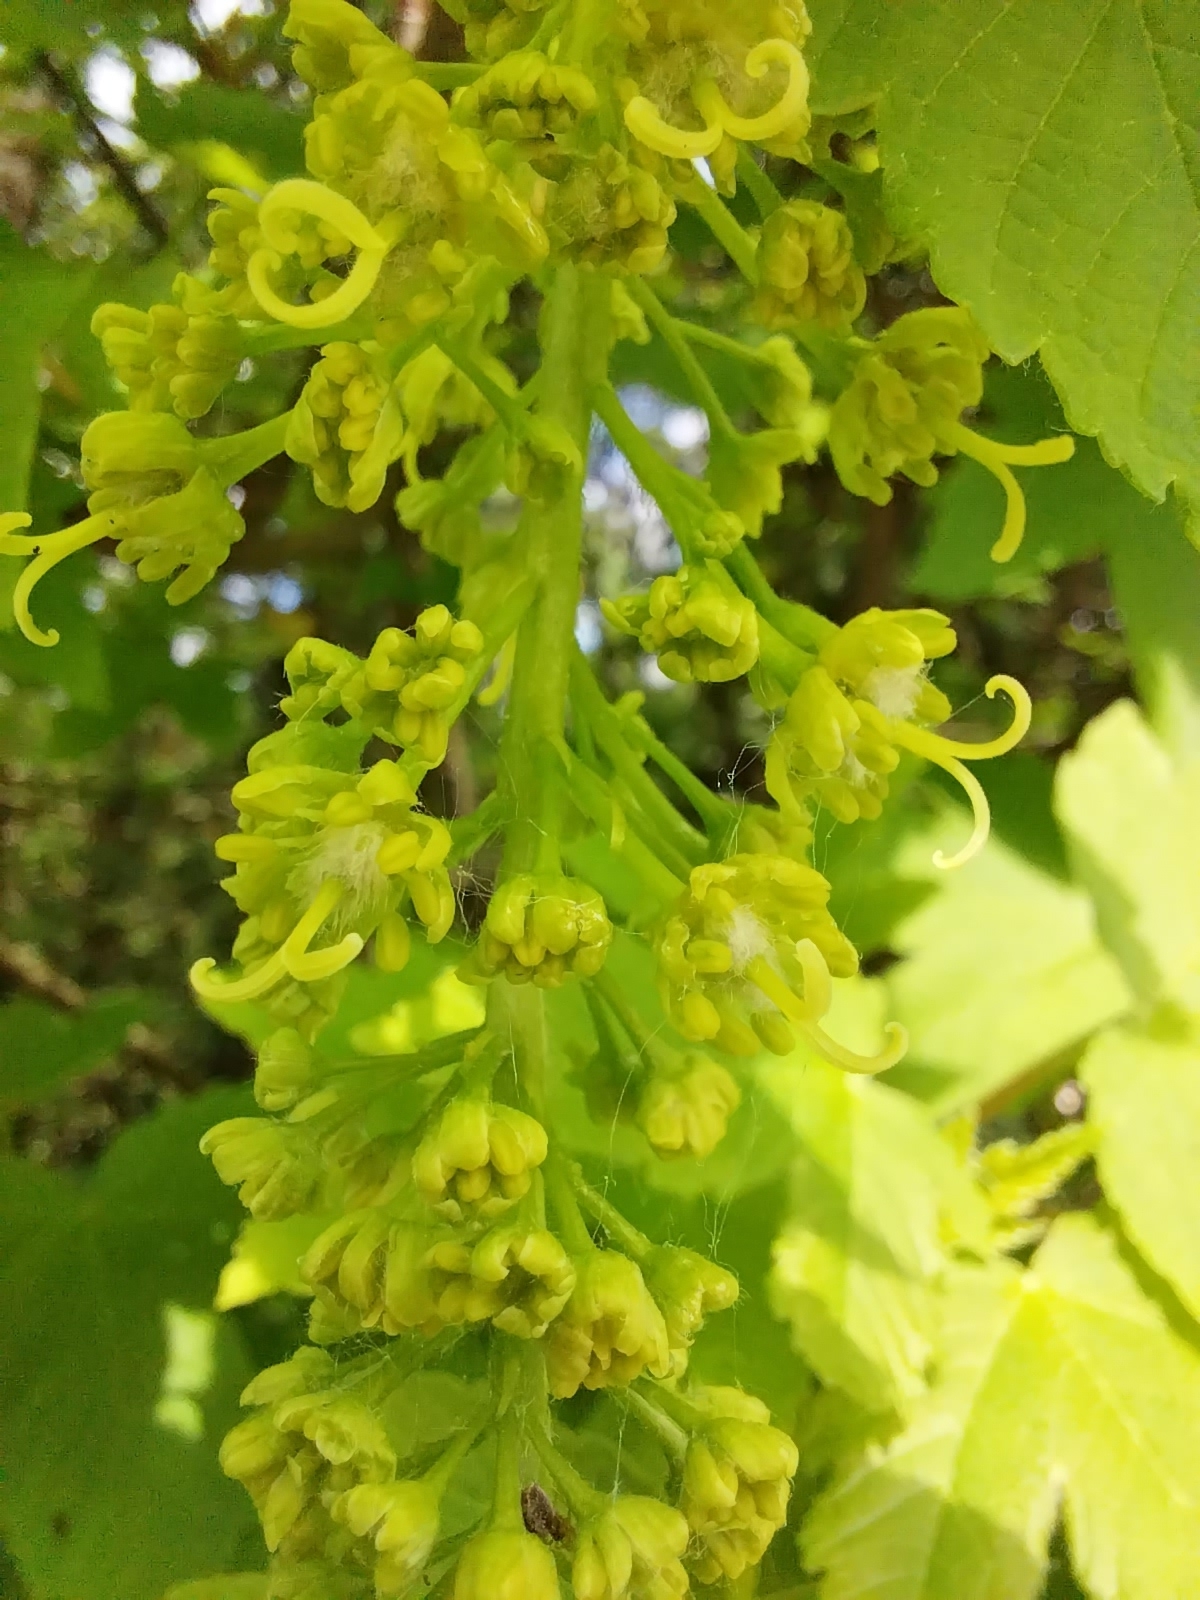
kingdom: Plantae
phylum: Tracheophyta
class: Magnoliopsida
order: Sapindales
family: Sapindaceae
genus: Acer
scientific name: Acer pseudoplatanus
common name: Sycamore
